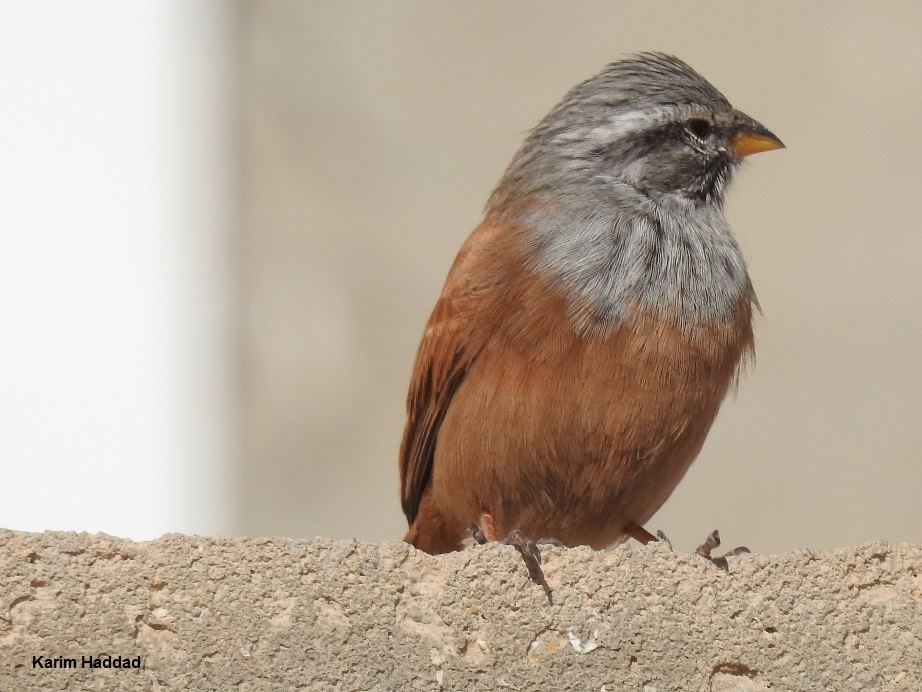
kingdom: Animalia
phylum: Chordata
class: Aves
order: Passeriformes
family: Emberizidae
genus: Emberiza
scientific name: Emberiza sahari
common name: House bunting
